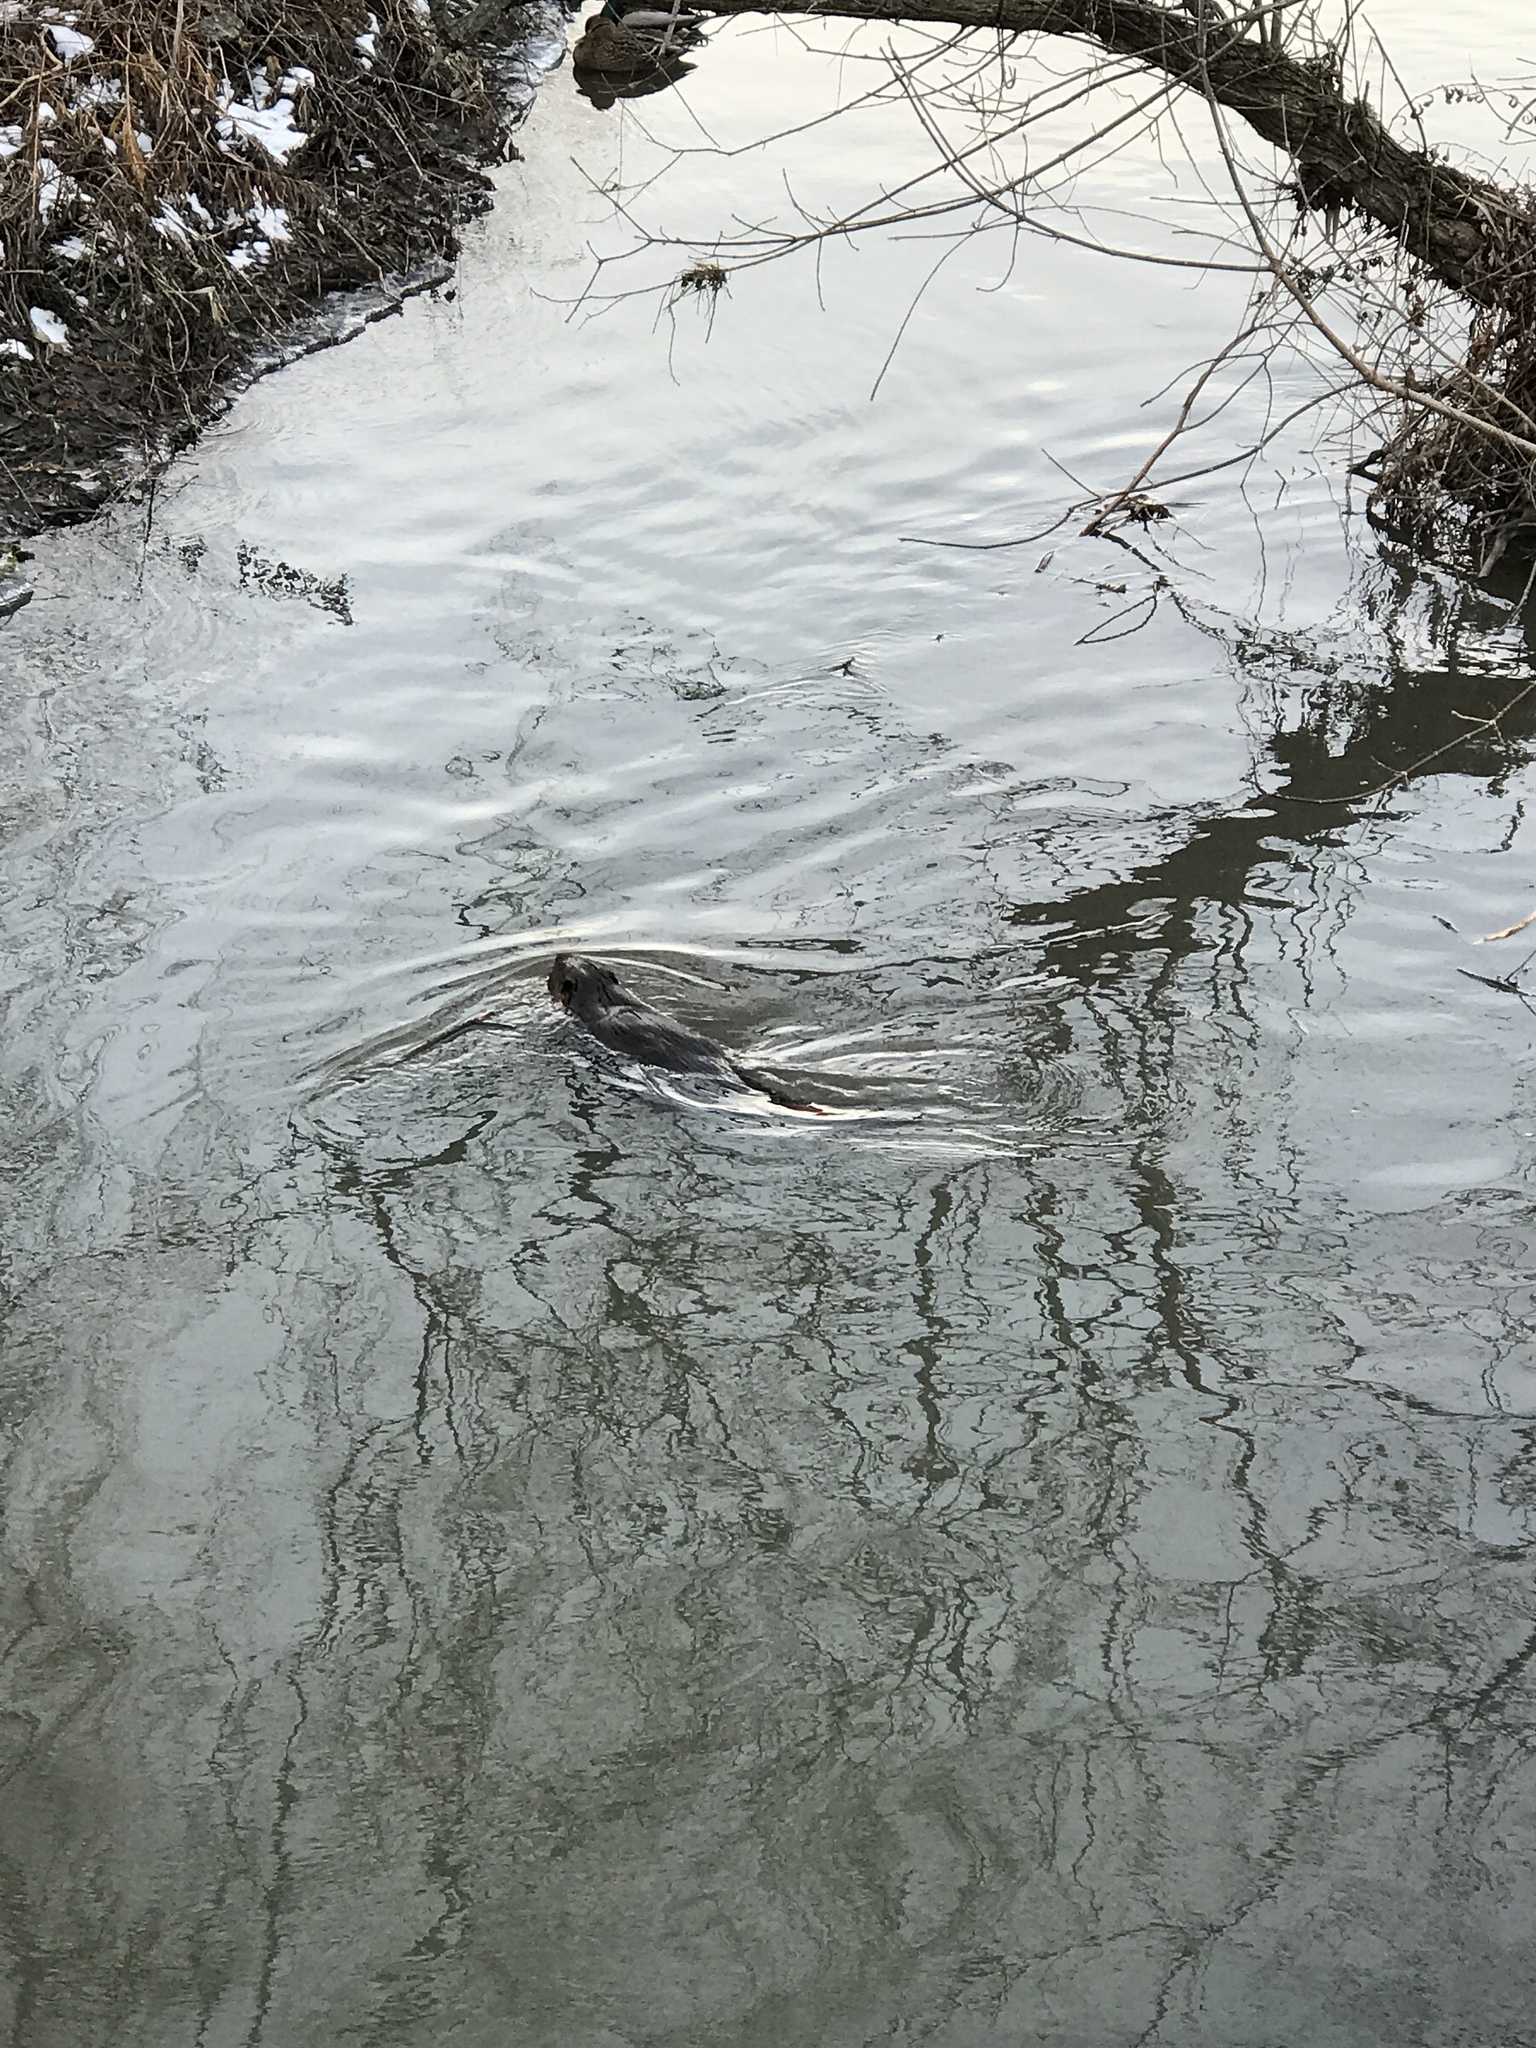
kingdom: Animalia
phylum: Chordata
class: Mammalia
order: Rodentia
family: Castoridae
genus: Castor
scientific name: Castor canadensis
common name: American beaver
